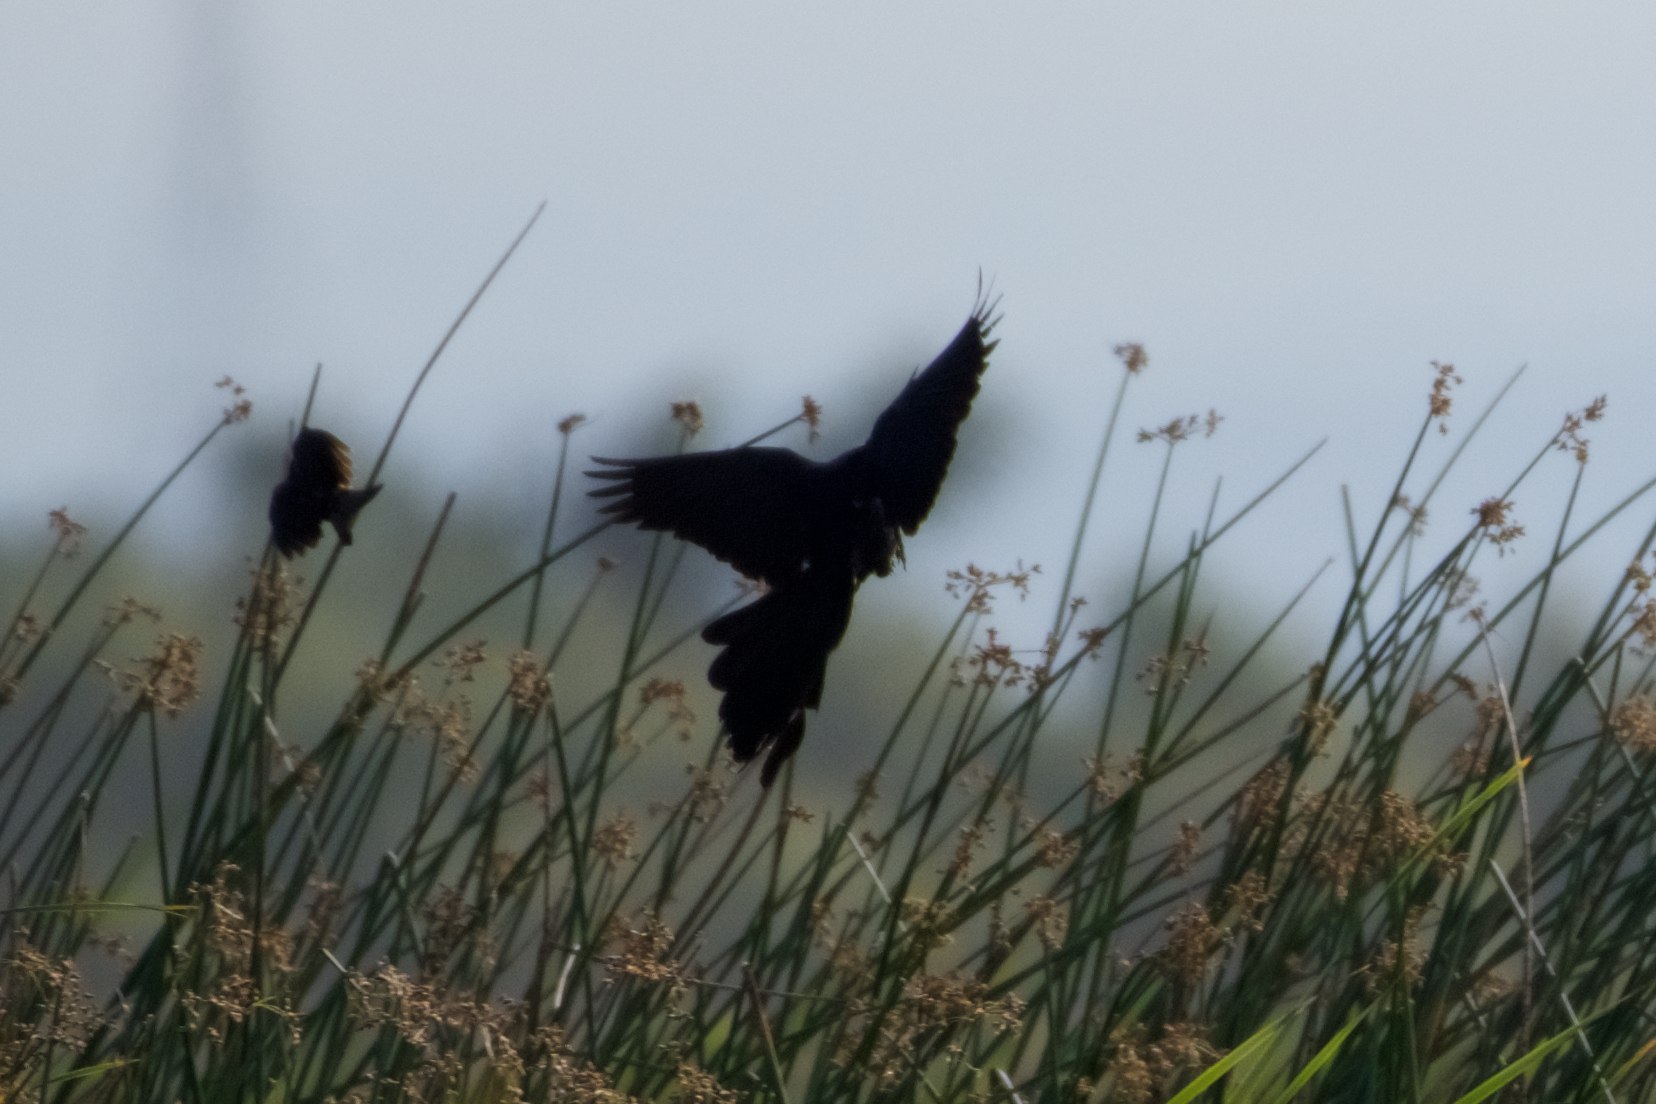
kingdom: Animalia
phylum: Chordata
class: Aves
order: Passeriformes
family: Icteridae
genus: Quiscalus
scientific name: Quiscalus mexicanus
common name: Great-tailed grackle
